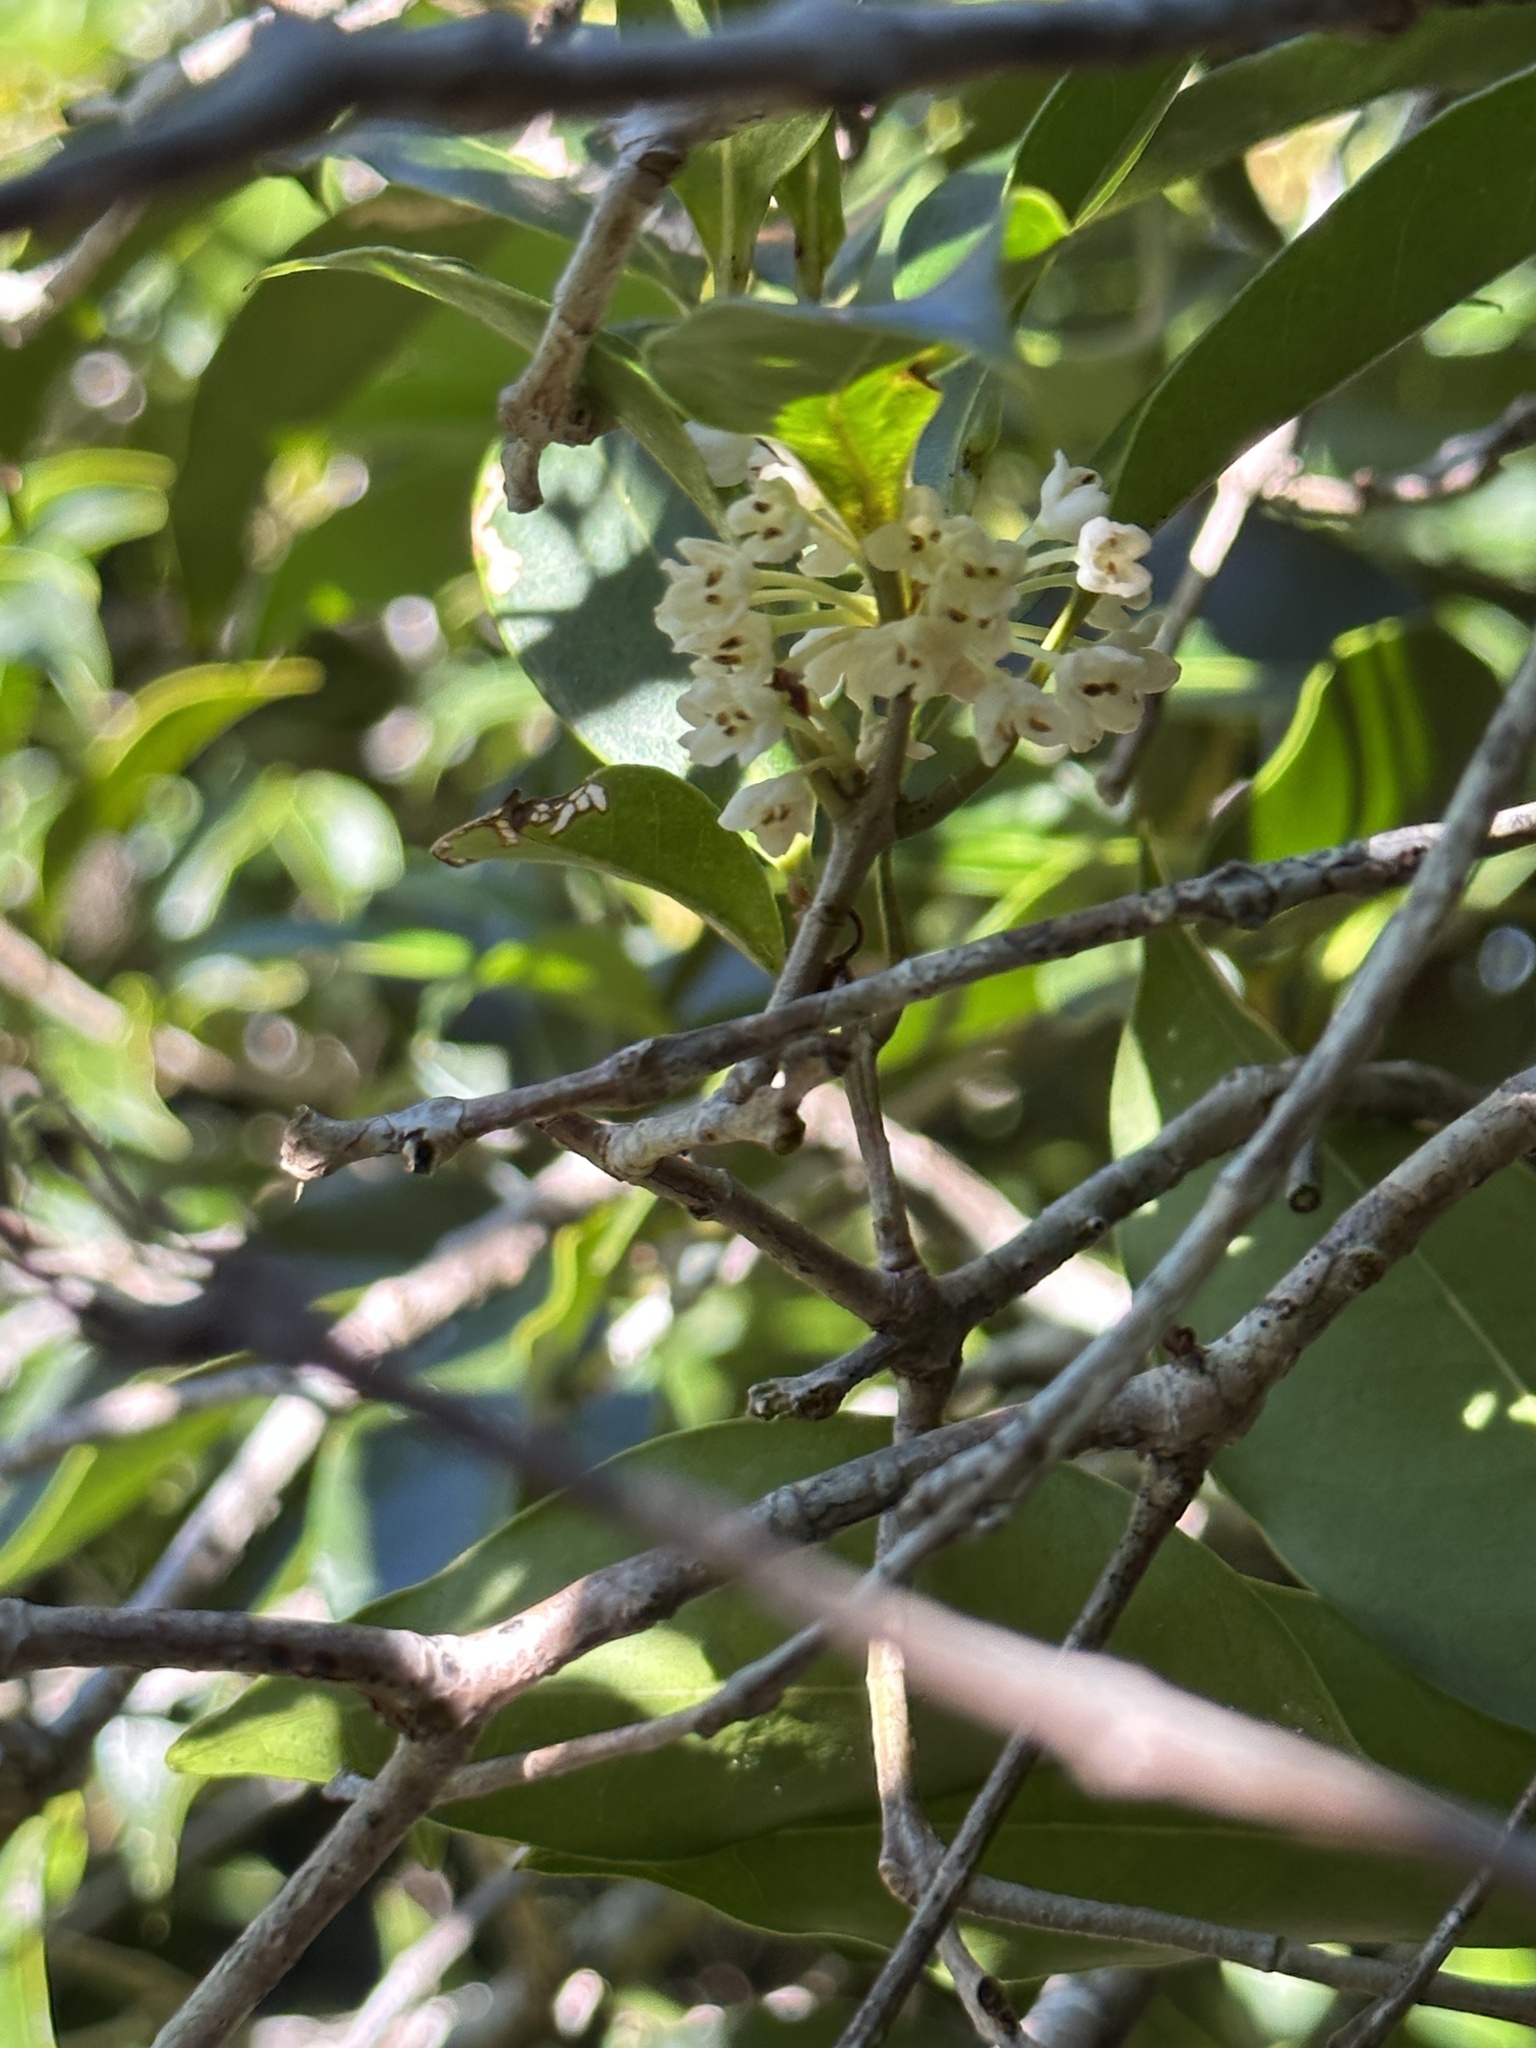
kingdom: Plantae
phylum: Tracheophyta
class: Magnoliopsida
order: Lamiales
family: Oleaceae
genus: Osmanthus
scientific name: Osmanthus insularis
